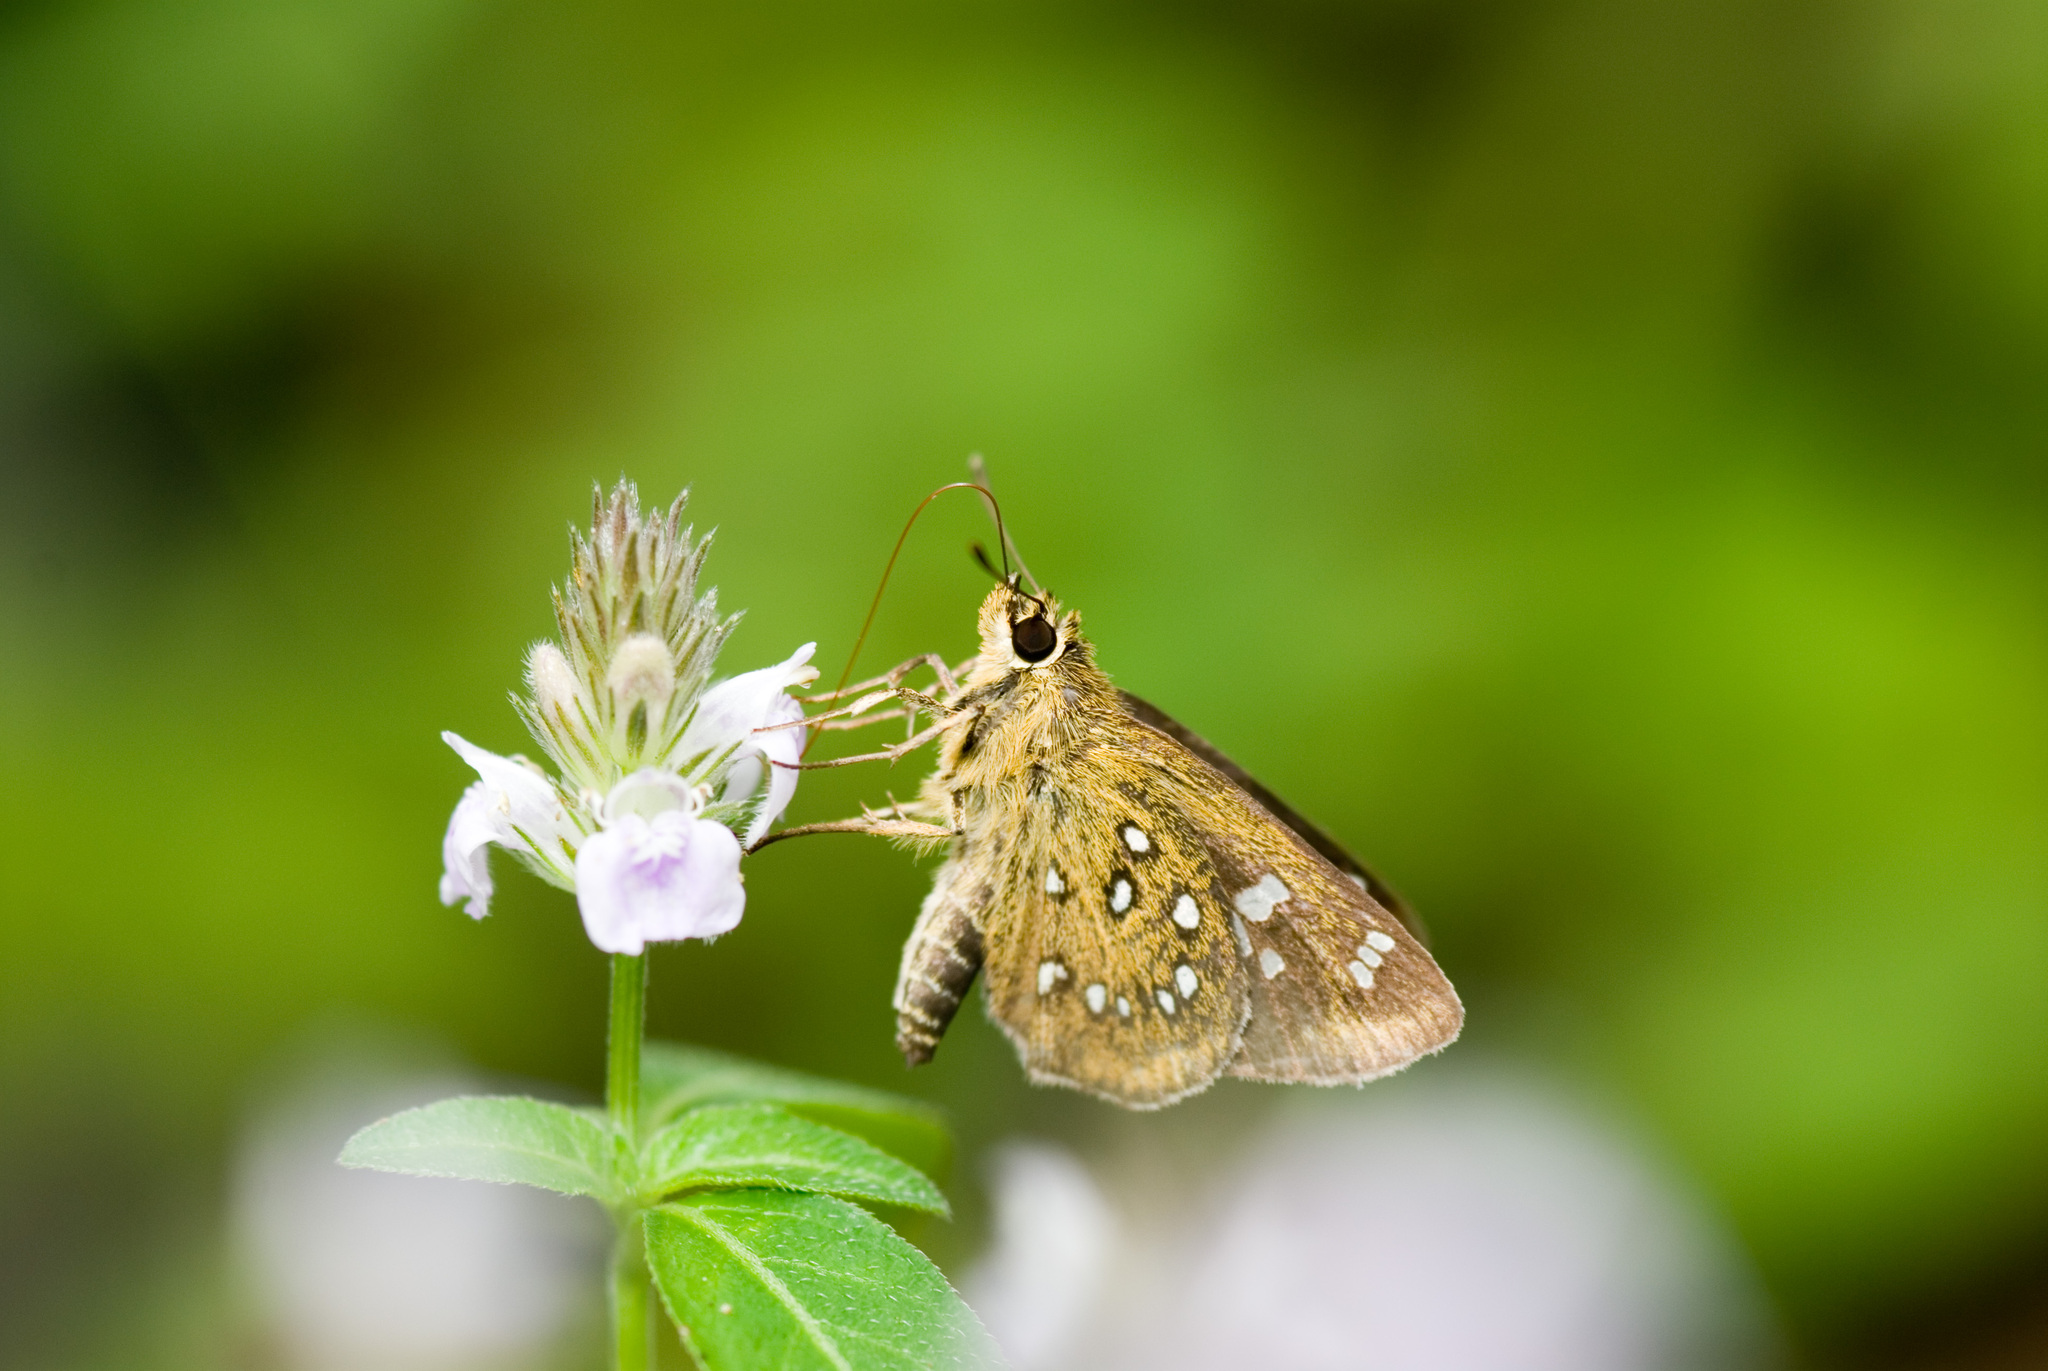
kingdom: Animalia
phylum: Arthropoda
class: Insecta
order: Lepidoptera
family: Hesperiidae
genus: Isoteinon
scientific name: Isoteinon lamprospilus
